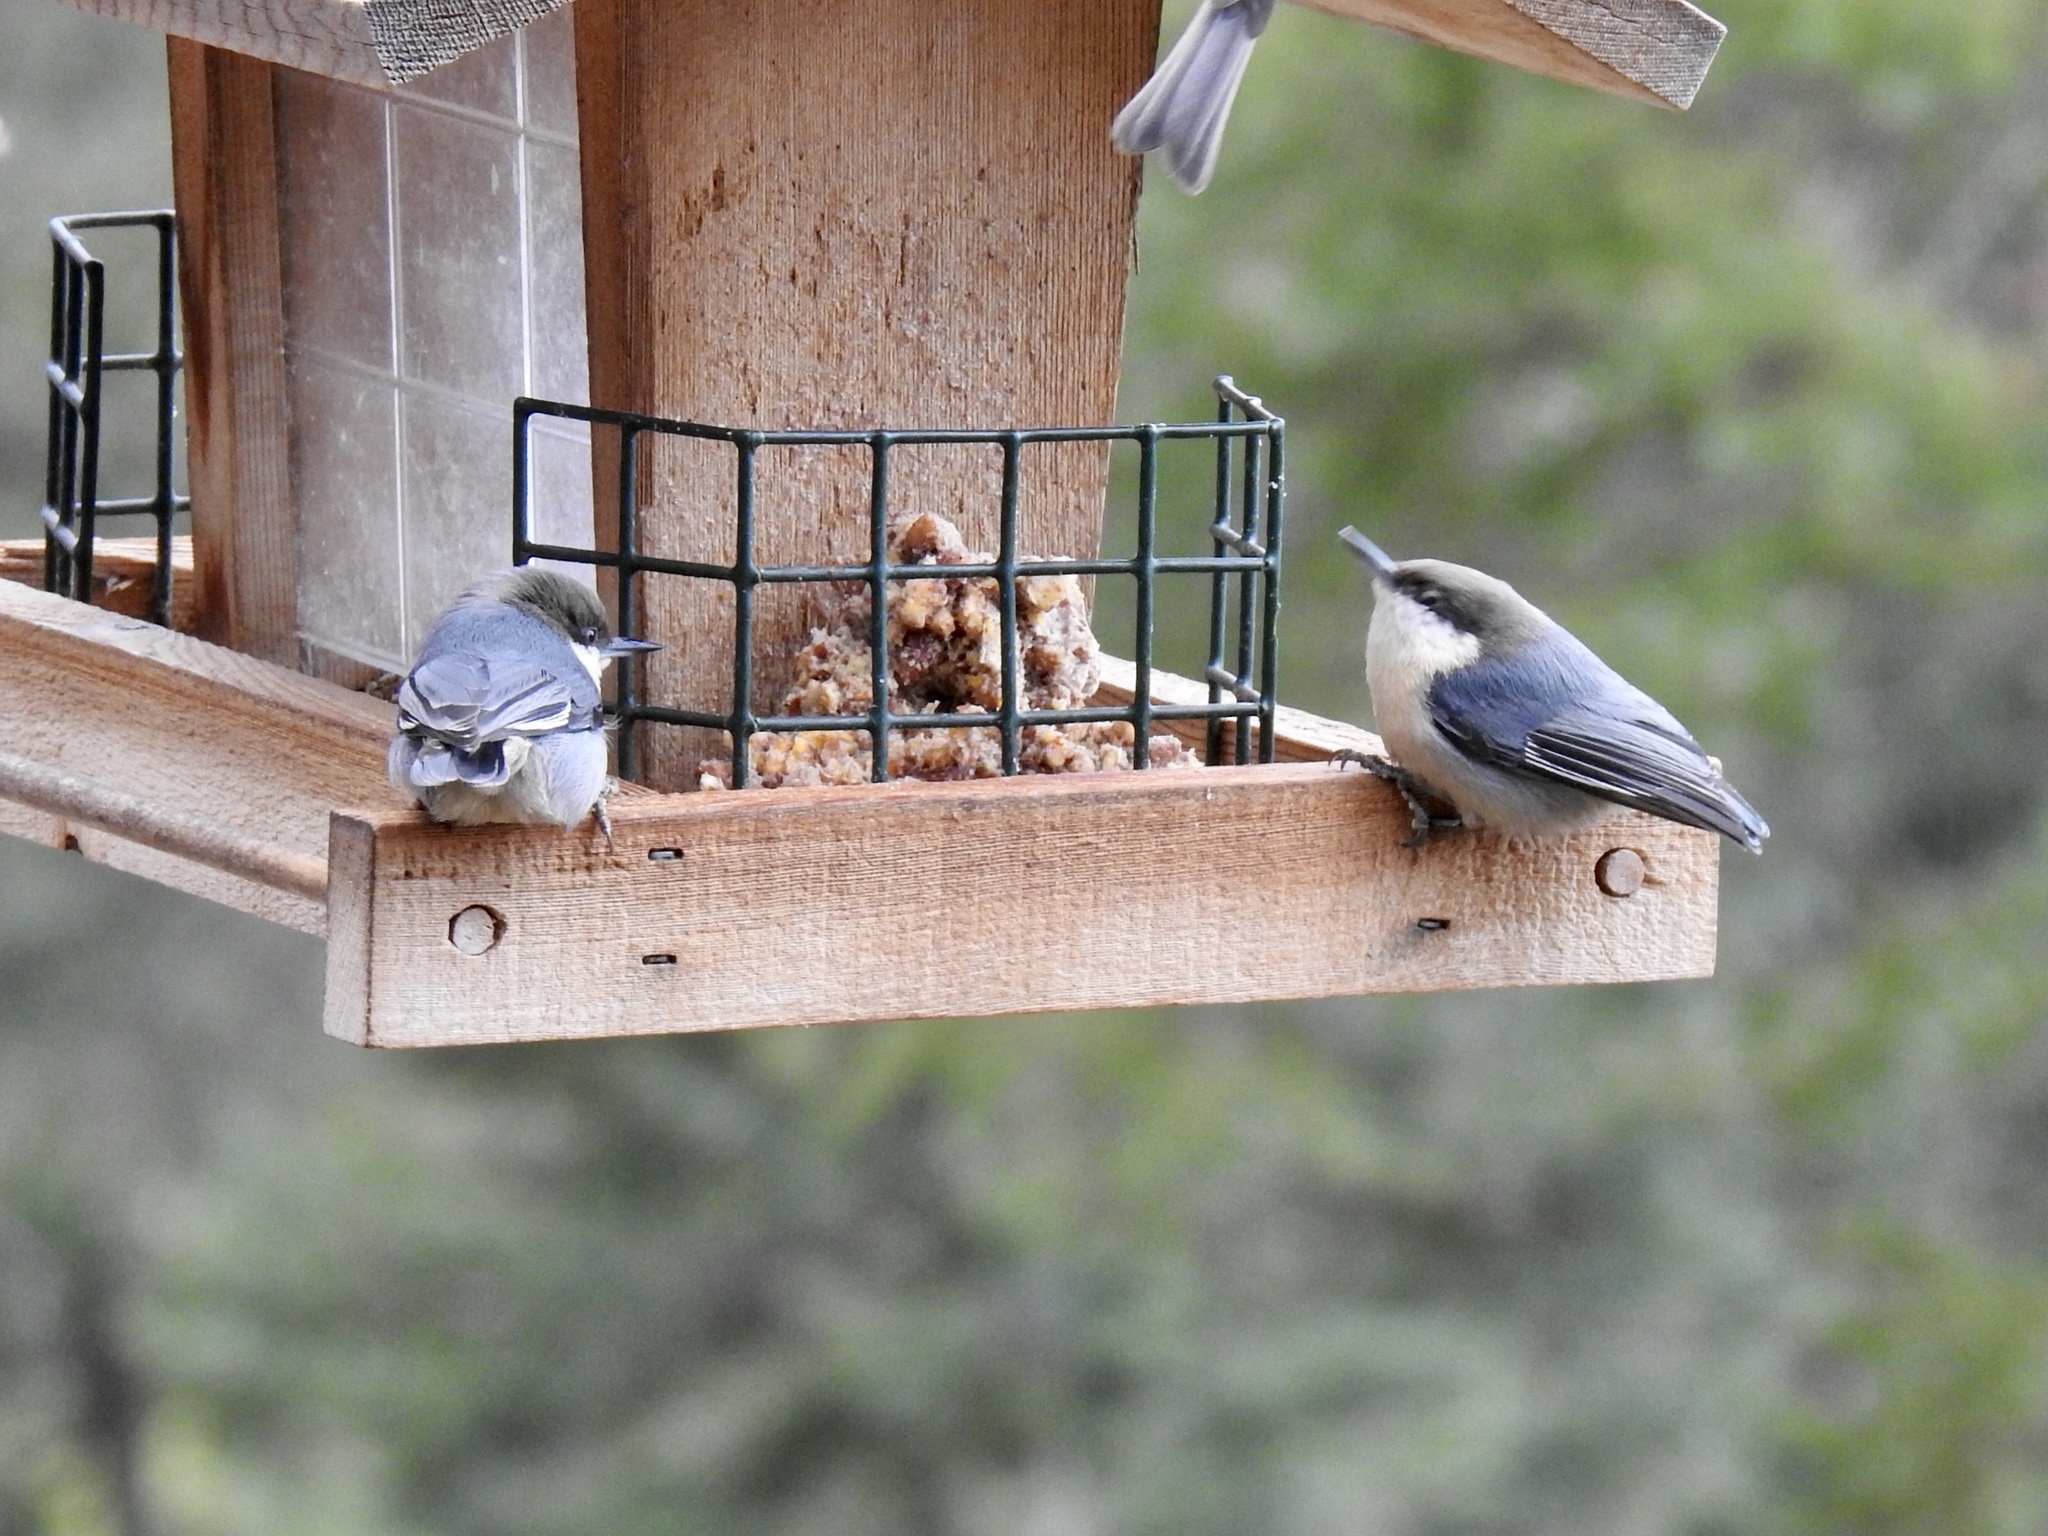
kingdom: Animalia
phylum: Chordata
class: Aves
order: Passeriformes
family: Sittidae
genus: Sitta
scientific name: Sitta pygmaea
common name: Pygmy nuthatch
